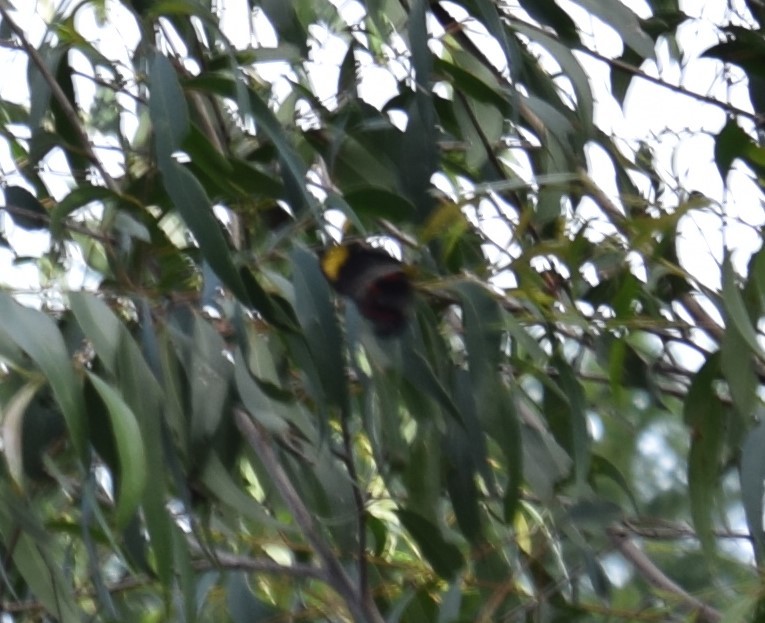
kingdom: Animalia
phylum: Arthropoda
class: Insecta
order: Lepidoptera
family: Pieridae
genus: Delias
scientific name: Delias nigrina
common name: Black jezebel
